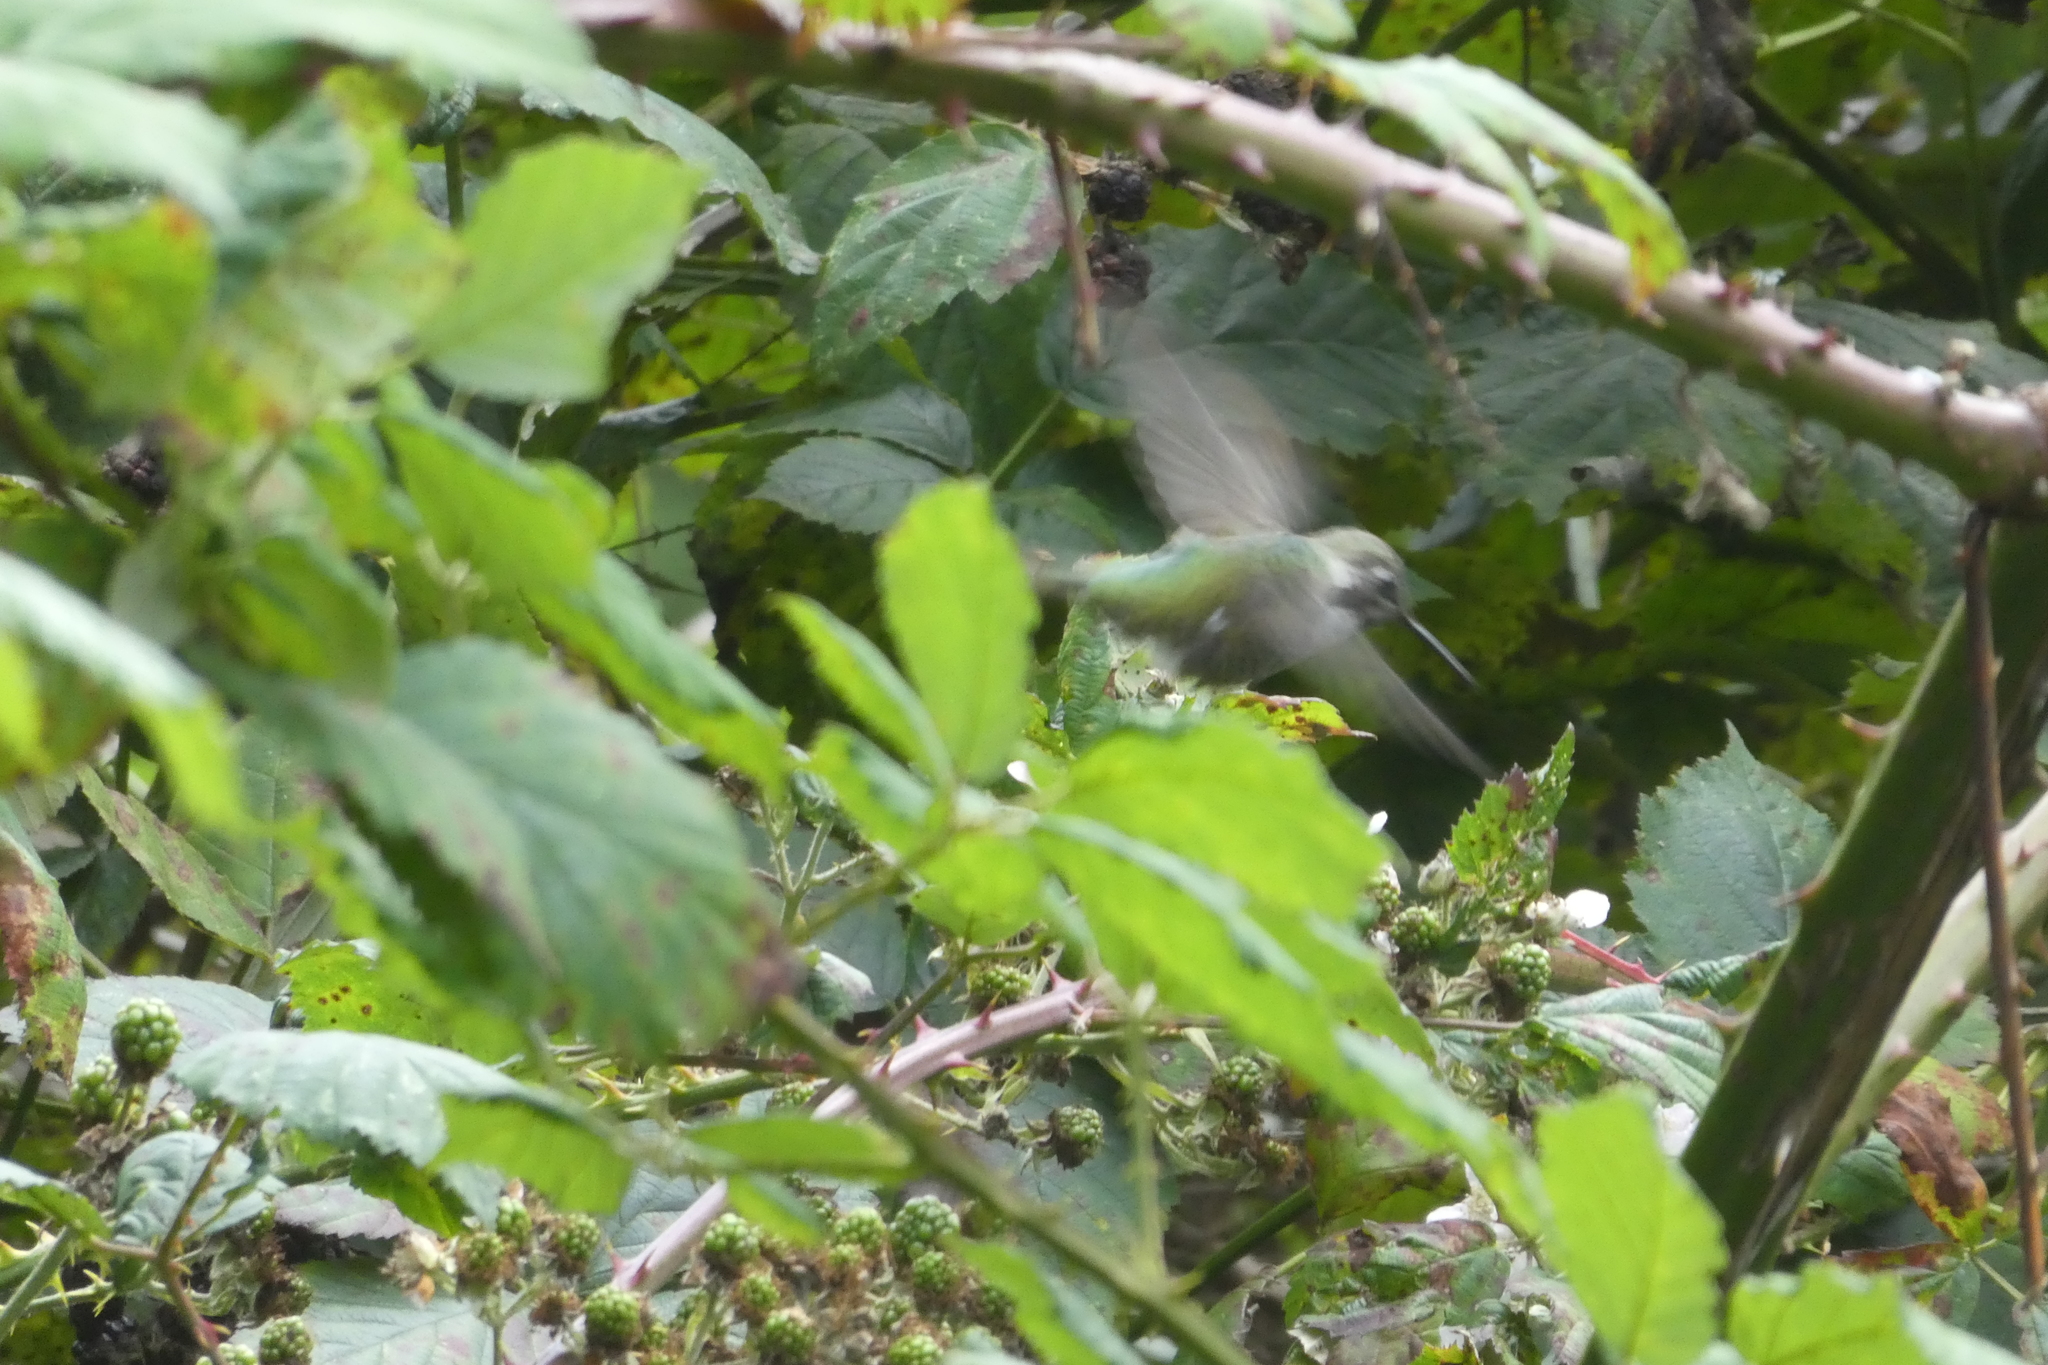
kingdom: Animalia
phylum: Chordata
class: Aves
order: Apodiformes
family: Trochilidae
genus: Calypte
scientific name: Calypte anna
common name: Anna's hummingbird
